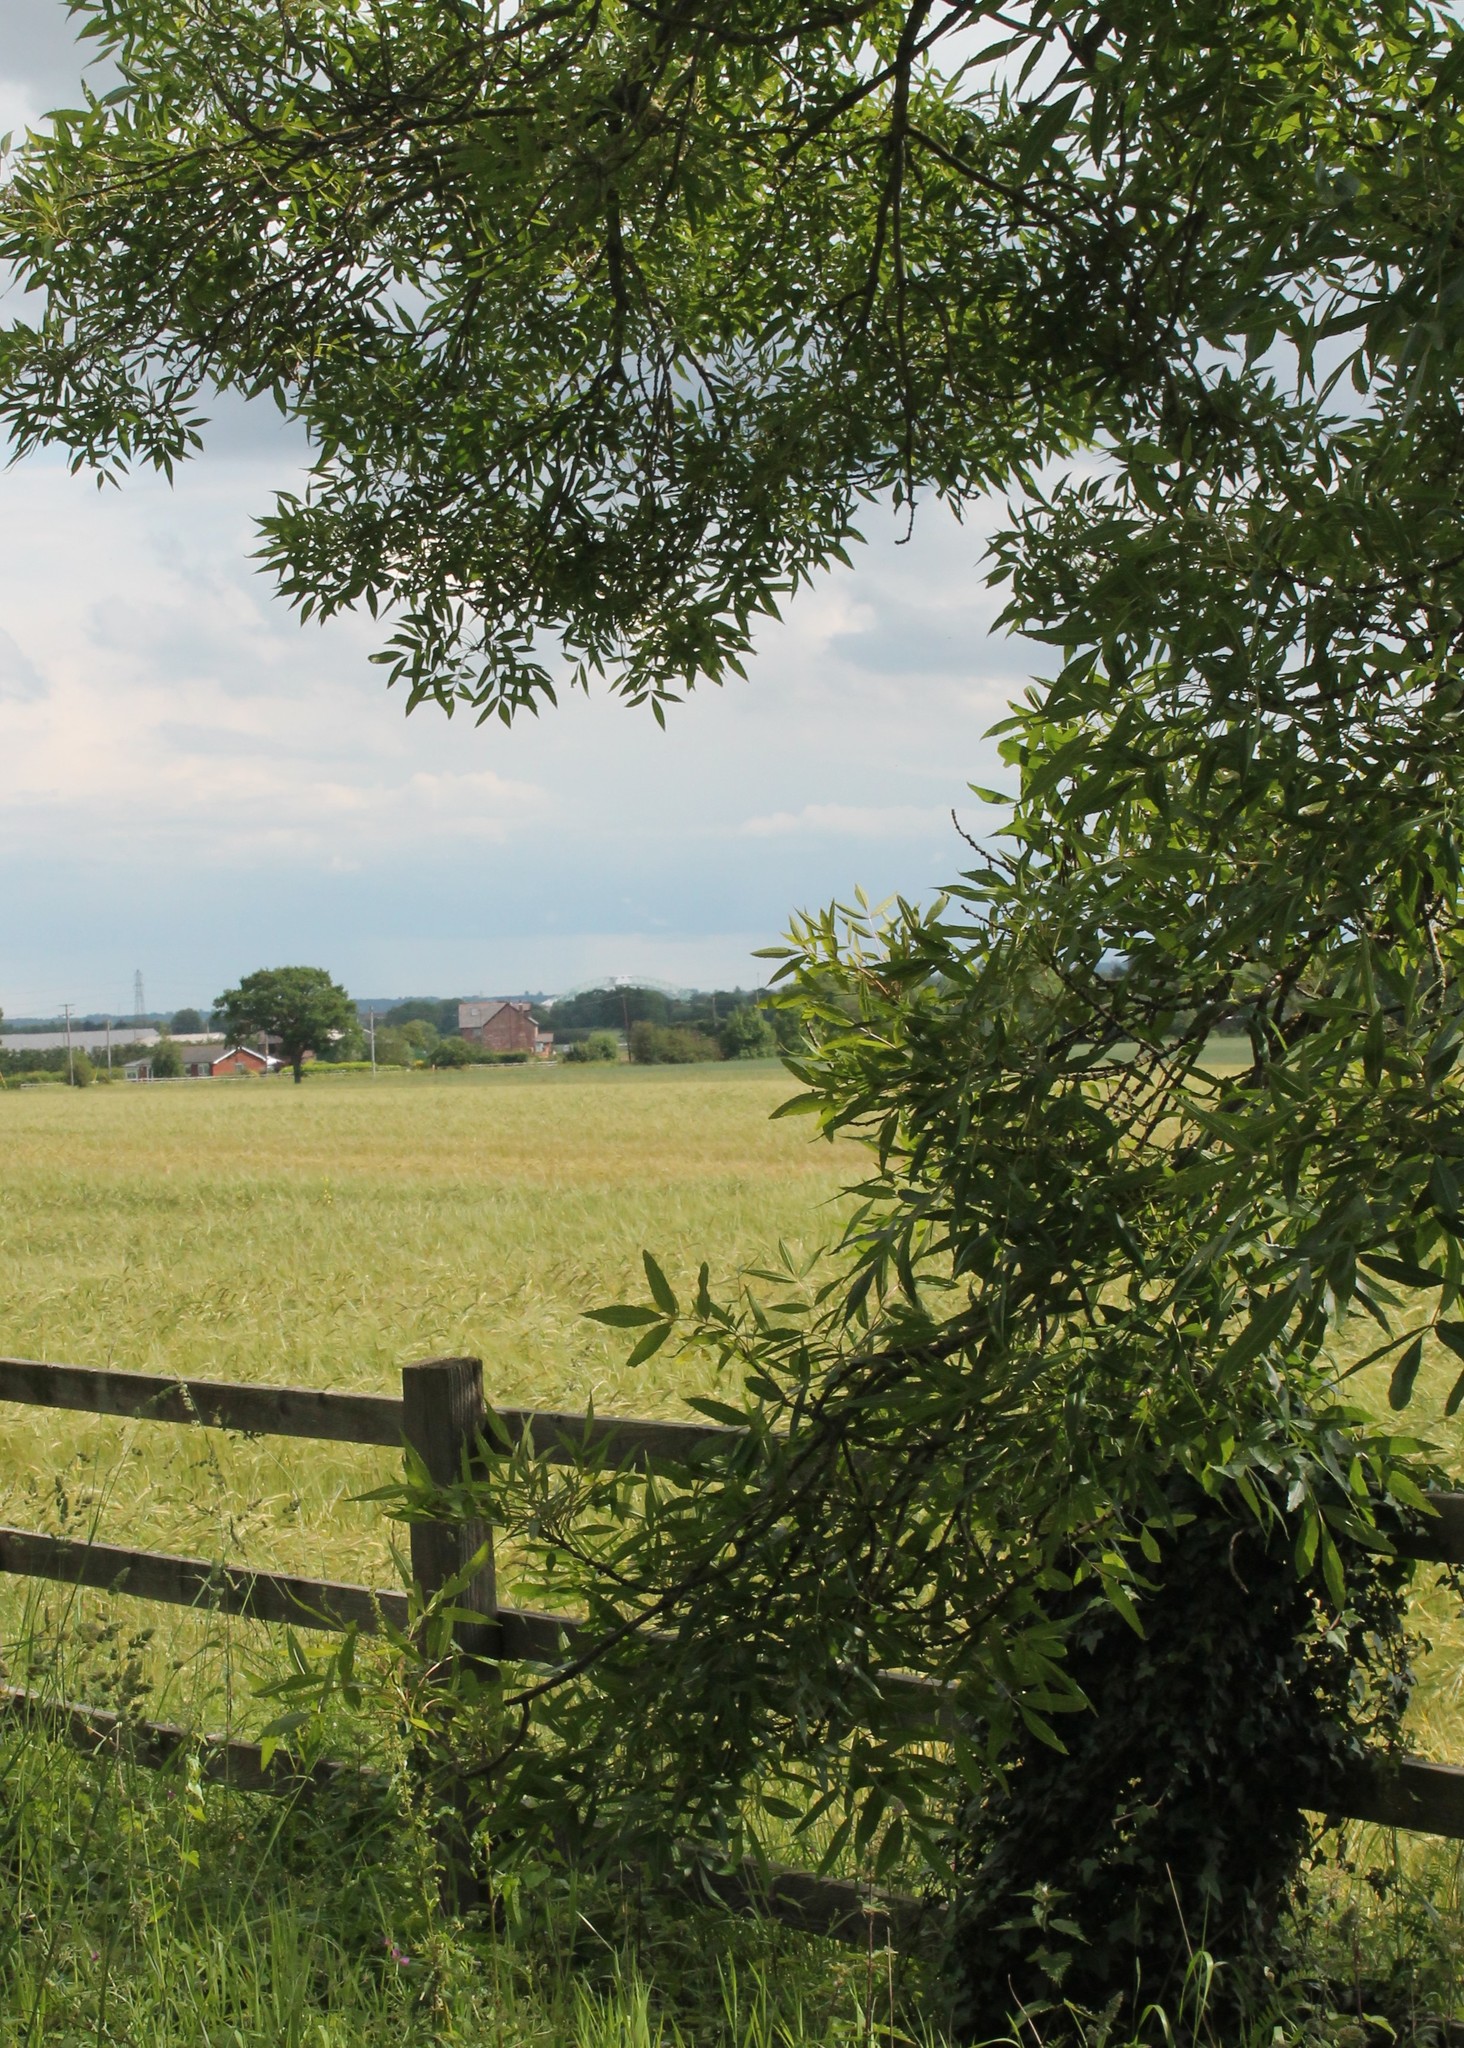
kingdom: Plantae
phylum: Tracheophyta
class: Magnoliopsida
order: Lamiales
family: Oleaceae
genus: Fraxinus
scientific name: Fraxinus angustifolia
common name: Narrow-leafed ash
